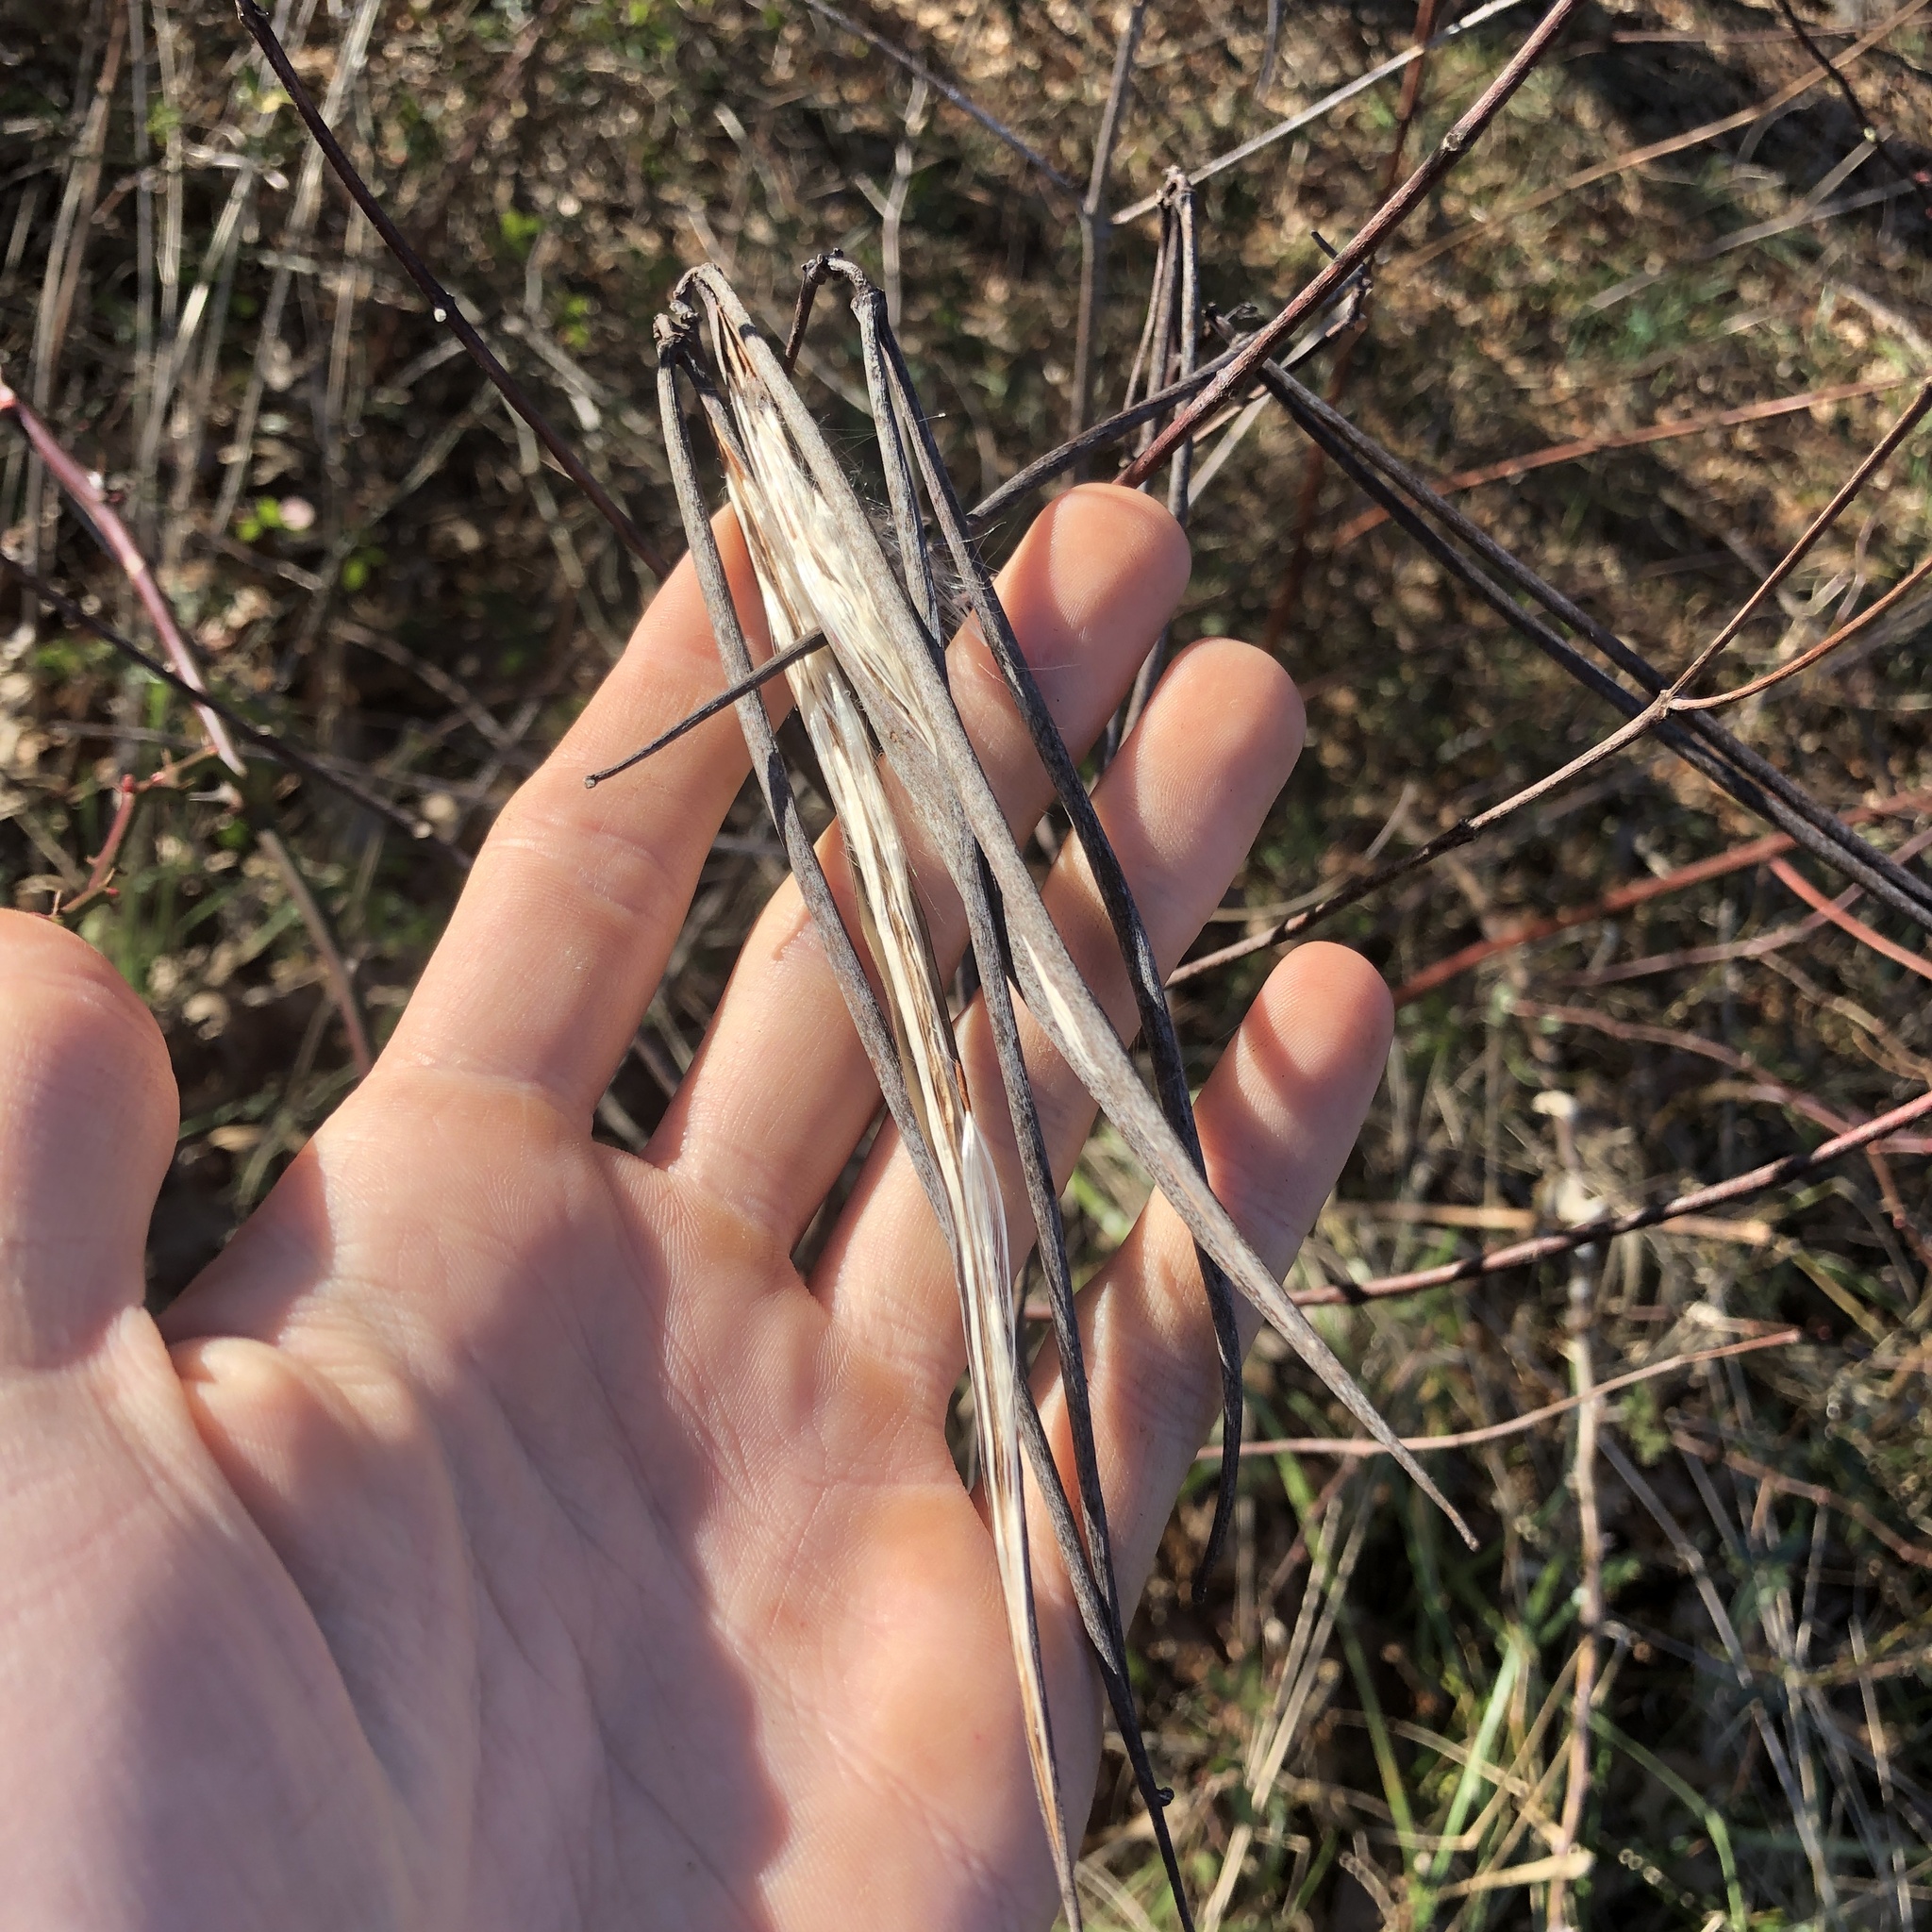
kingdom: Plantae
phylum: Tracheophyta
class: Magnoliopsida
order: Gentianales
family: Apocynaceae
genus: Apocynum
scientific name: Apocynum cannabinum
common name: Hemp dogbane
